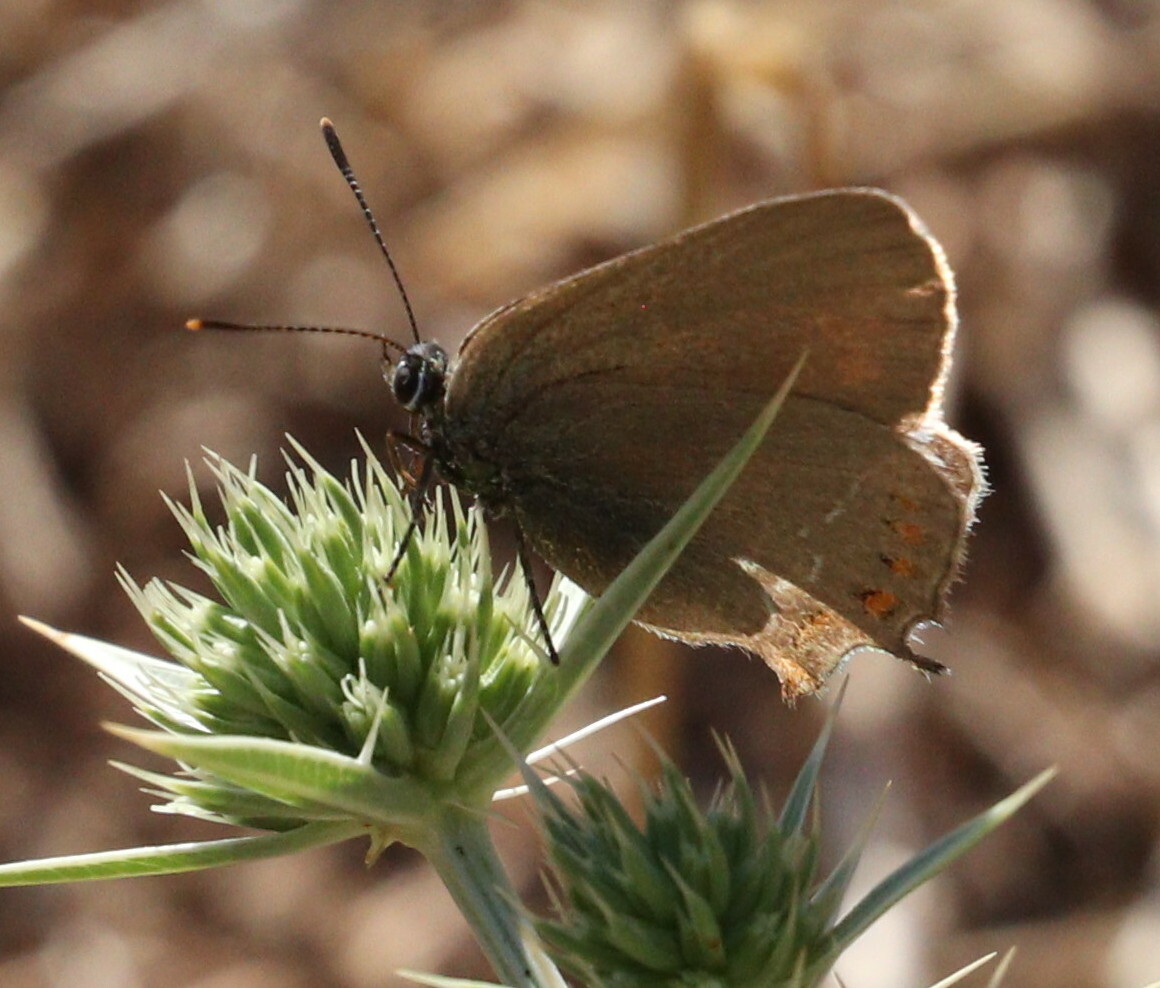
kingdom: Animalia
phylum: Arthropoda
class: Insecta
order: Lepidoptera
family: Lycaenidae
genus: Fixsenia
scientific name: Fixsenia esculi
